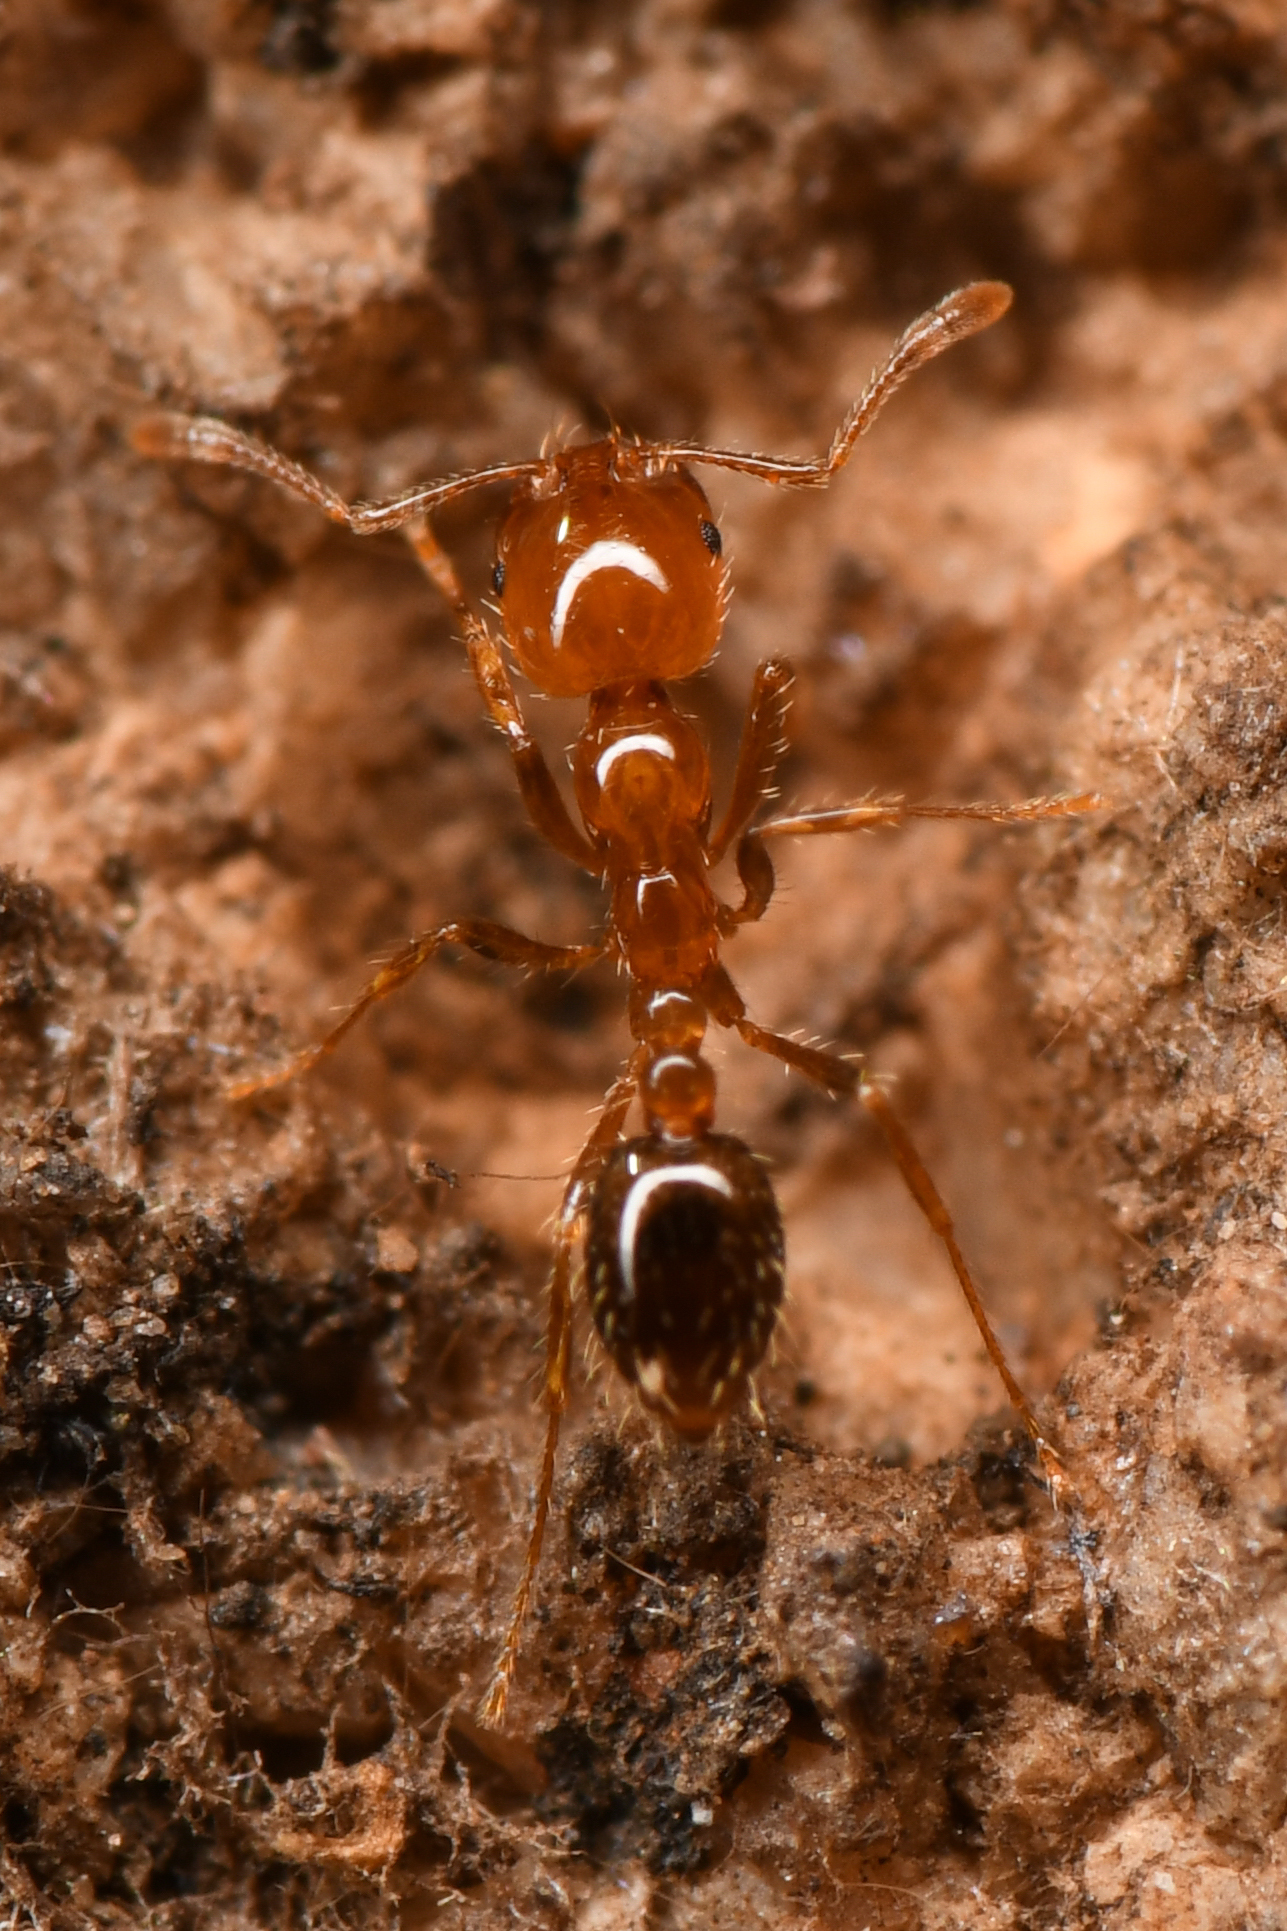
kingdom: Animalia
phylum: Arthropoda
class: Insecta
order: Hymenoptera
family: Formicidae
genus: Solenopsis
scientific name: Solenopsis xyloni
